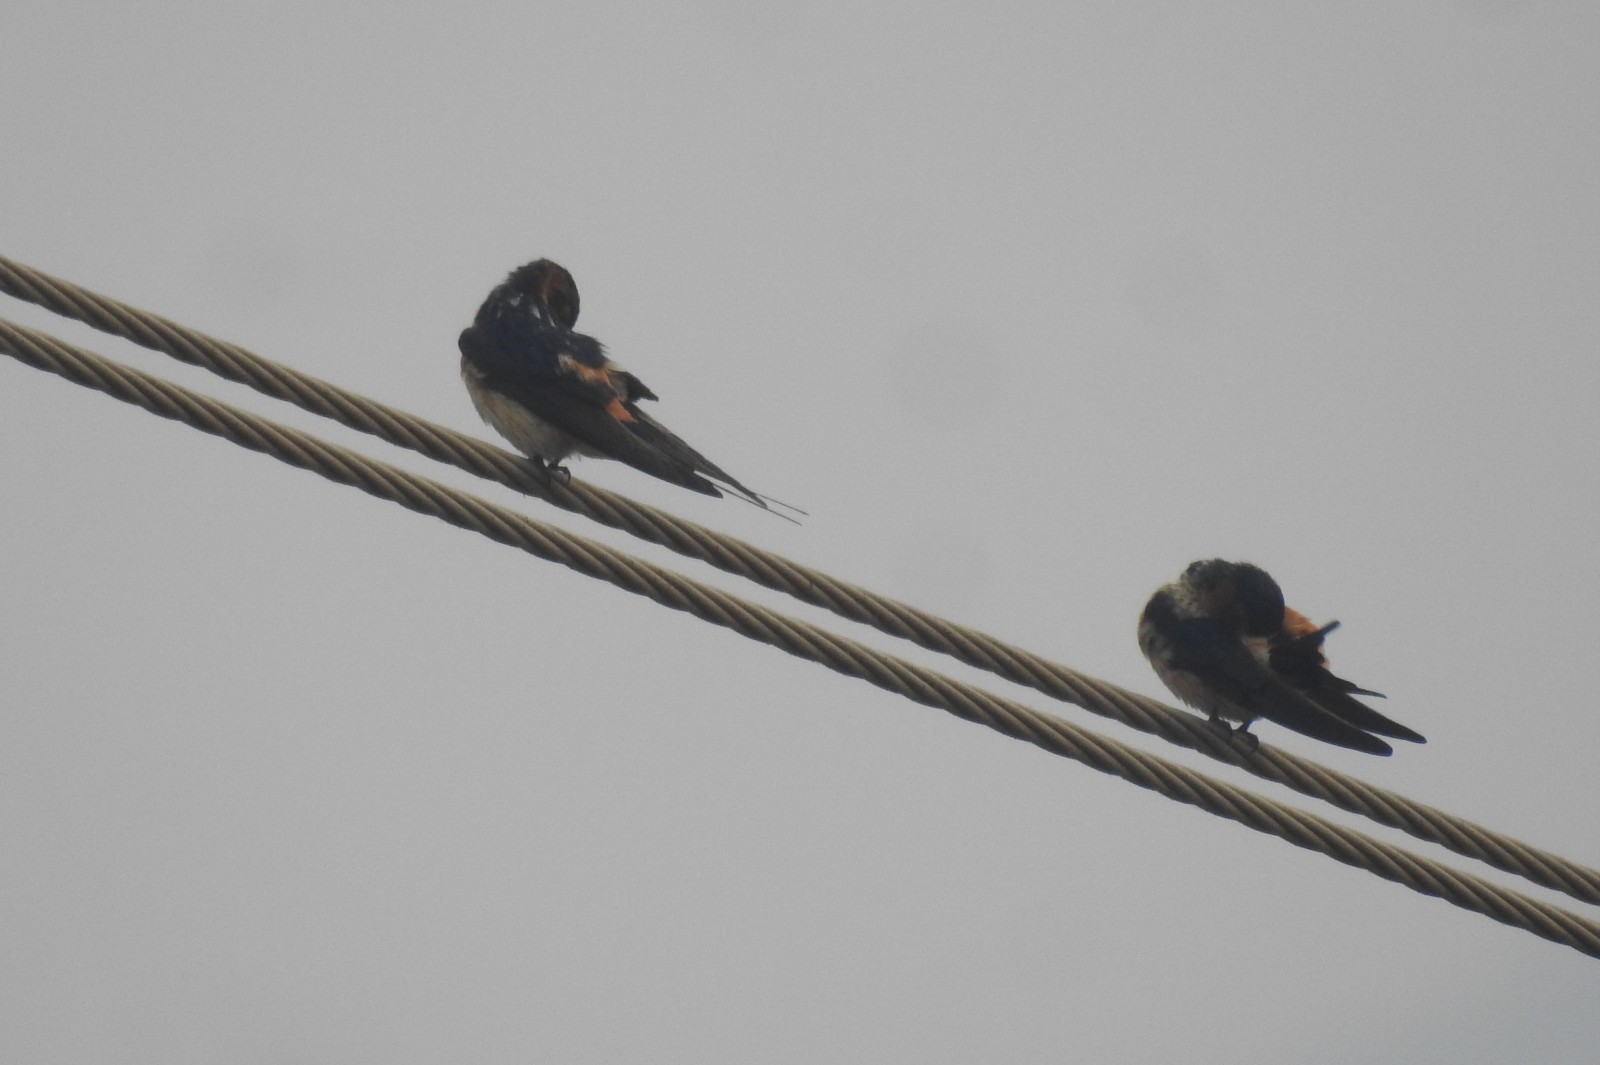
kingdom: Animalia
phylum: Chordata
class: Aves
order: Passeriformes
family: Hirundinidae
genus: Cecropis
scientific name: Cecropis daurica
